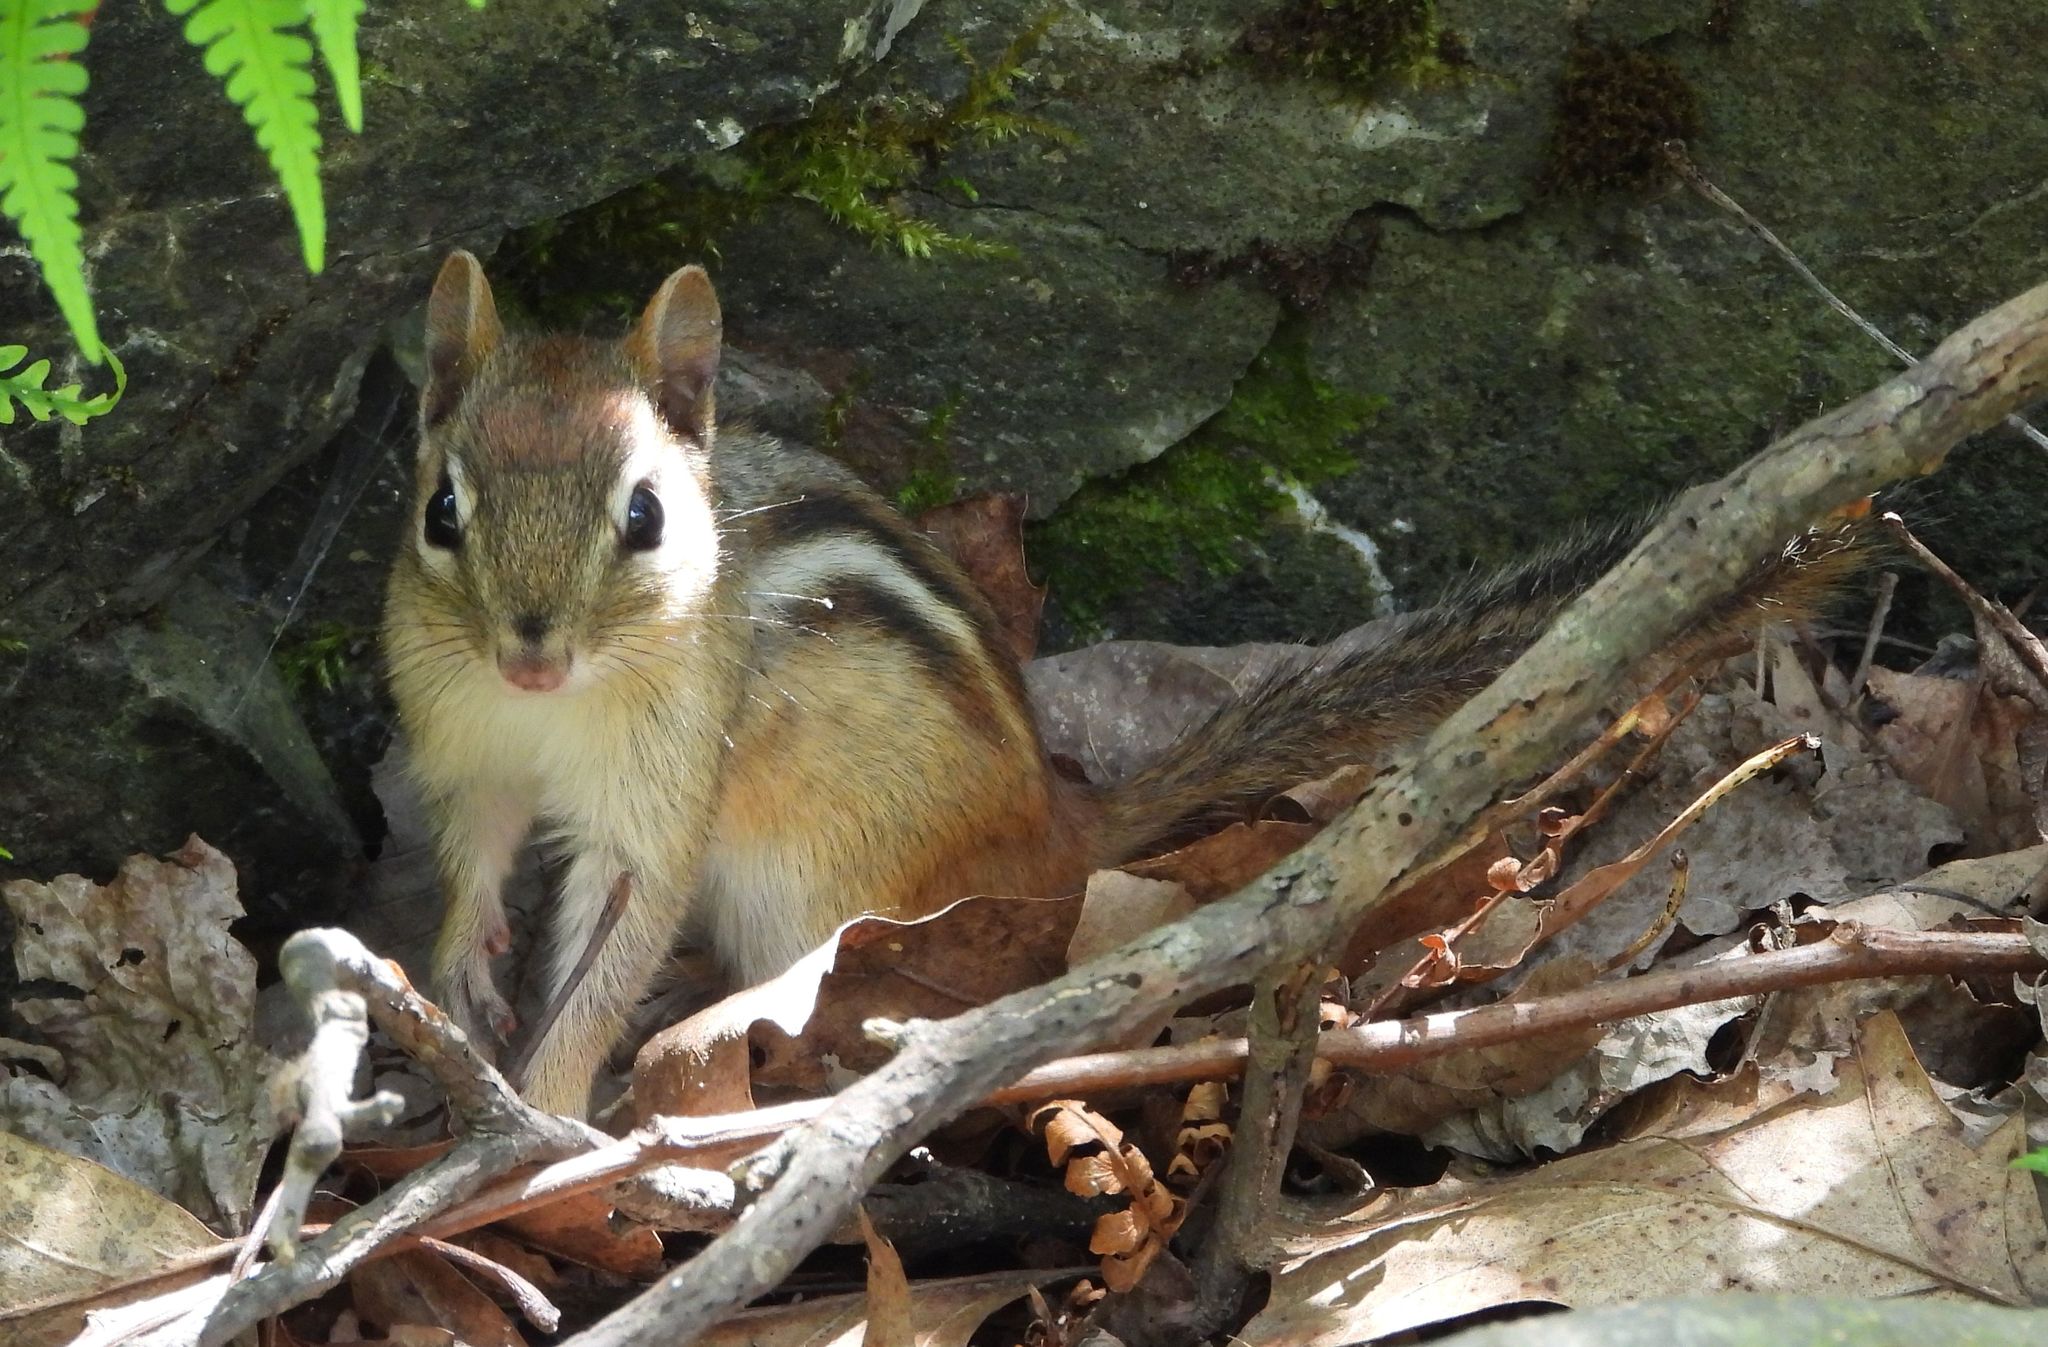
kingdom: Animalia
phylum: Chordata
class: Mammalia
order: Rodentia
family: Sciuridae
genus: Tamias
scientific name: Tamias striatus
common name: Eastern chipmunk
